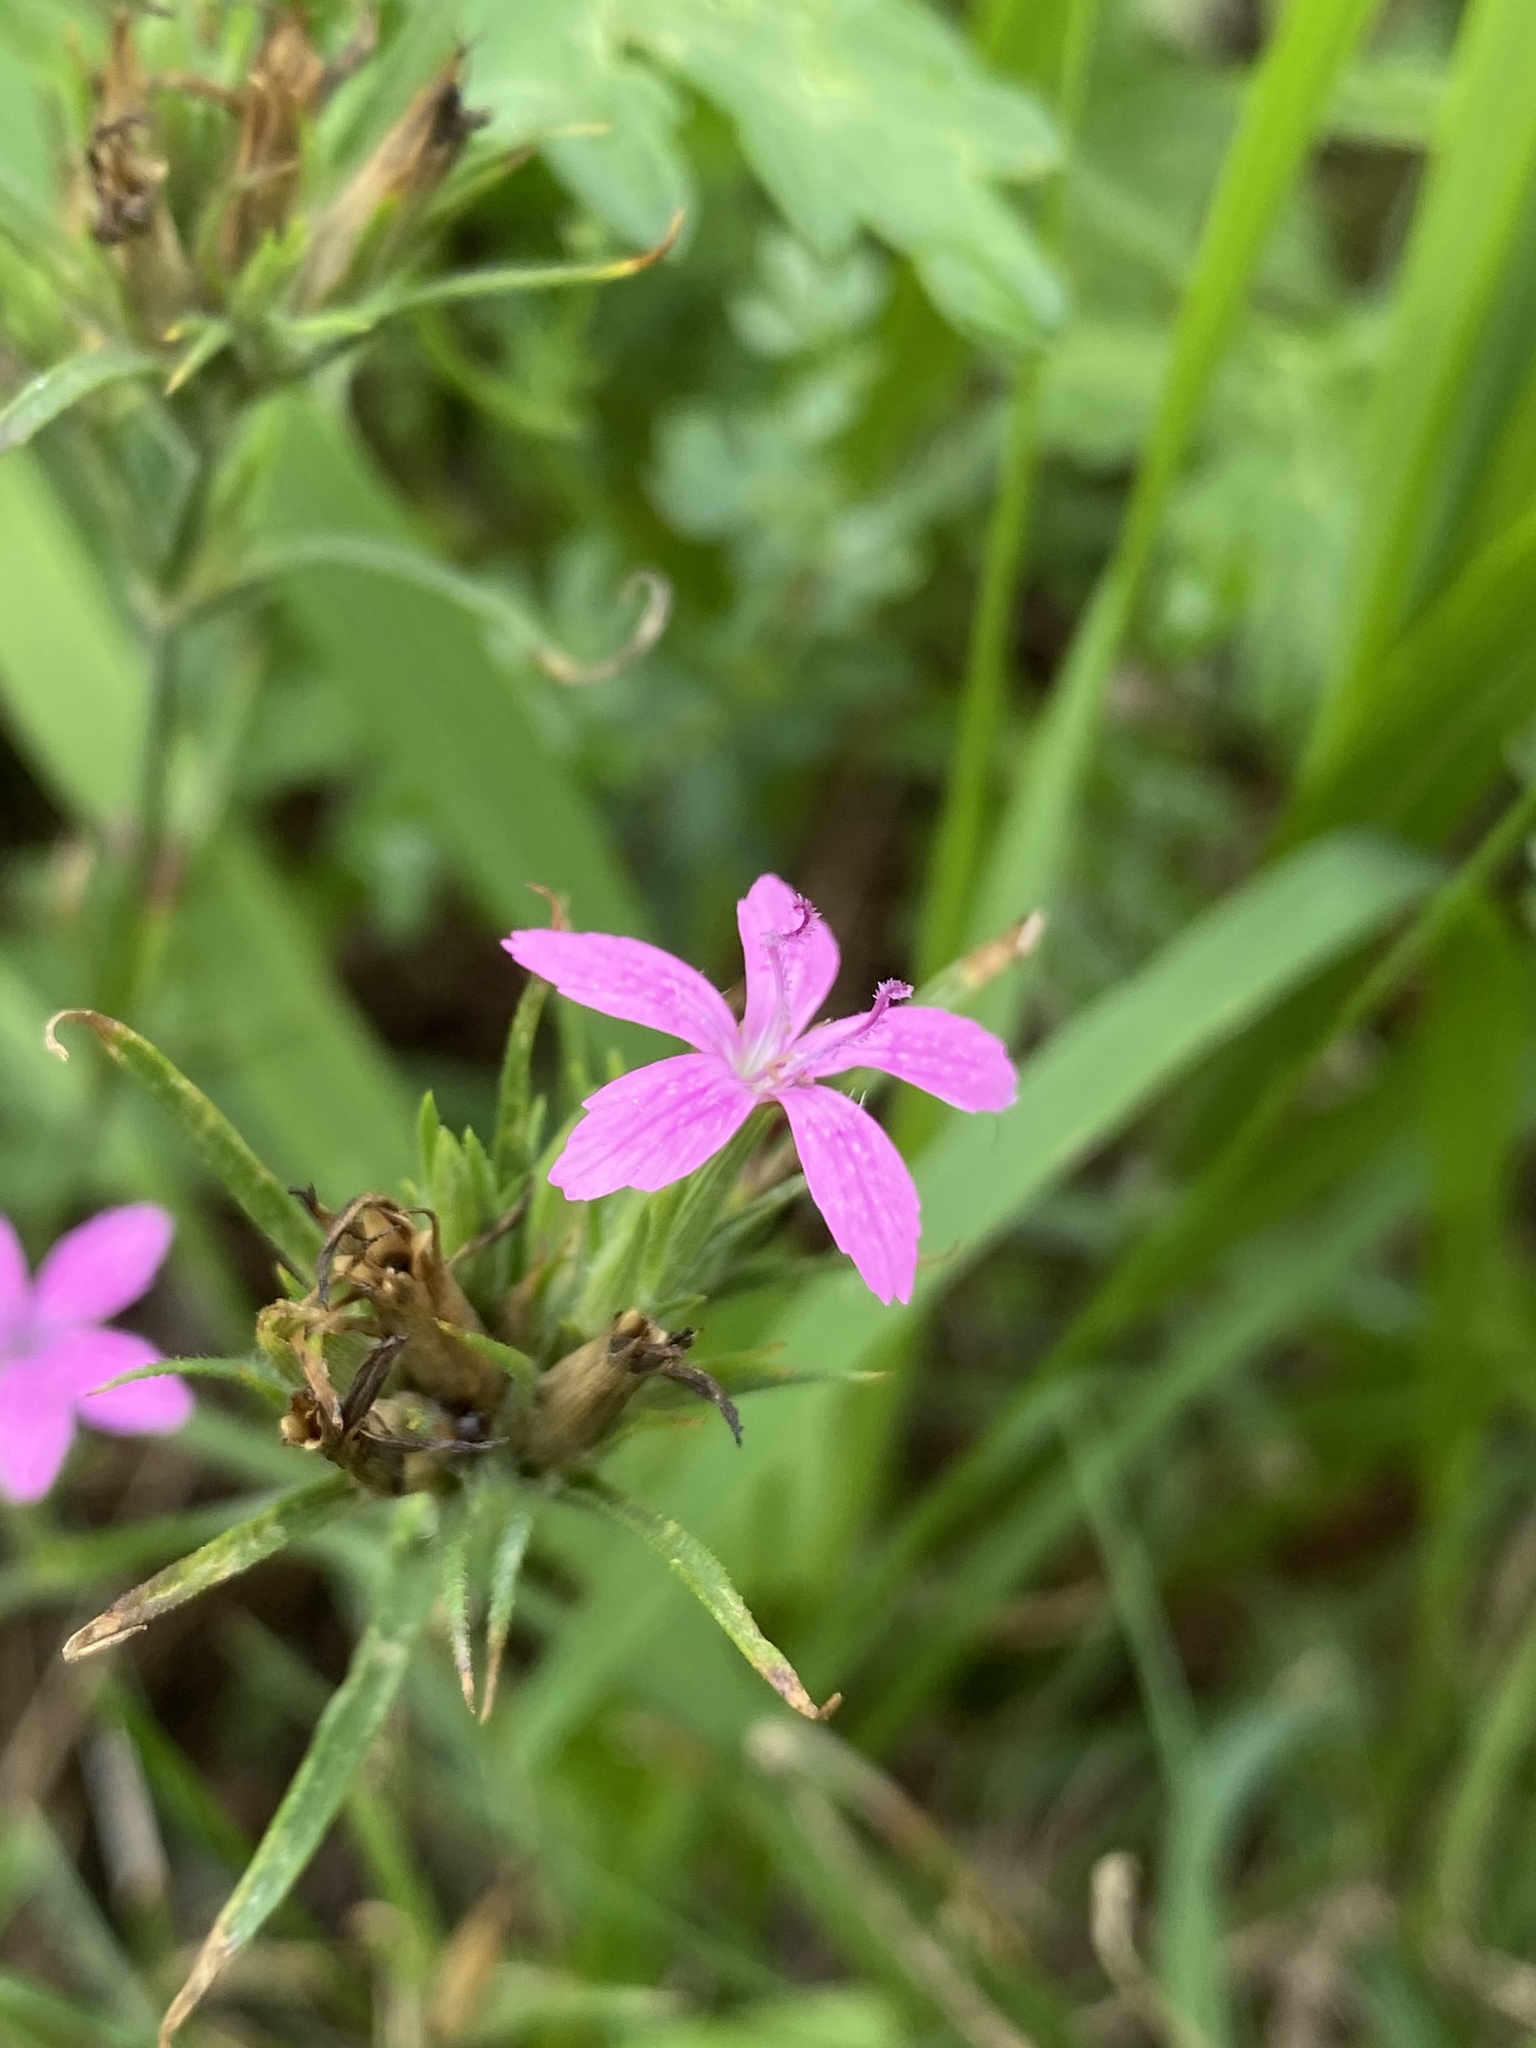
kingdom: Plantae
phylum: Tracheophyta
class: Magnoliopsida
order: Caryophyllales
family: Caryophyllaceae
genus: Dianthus
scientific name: Dianthus armeria
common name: Deptford pink
